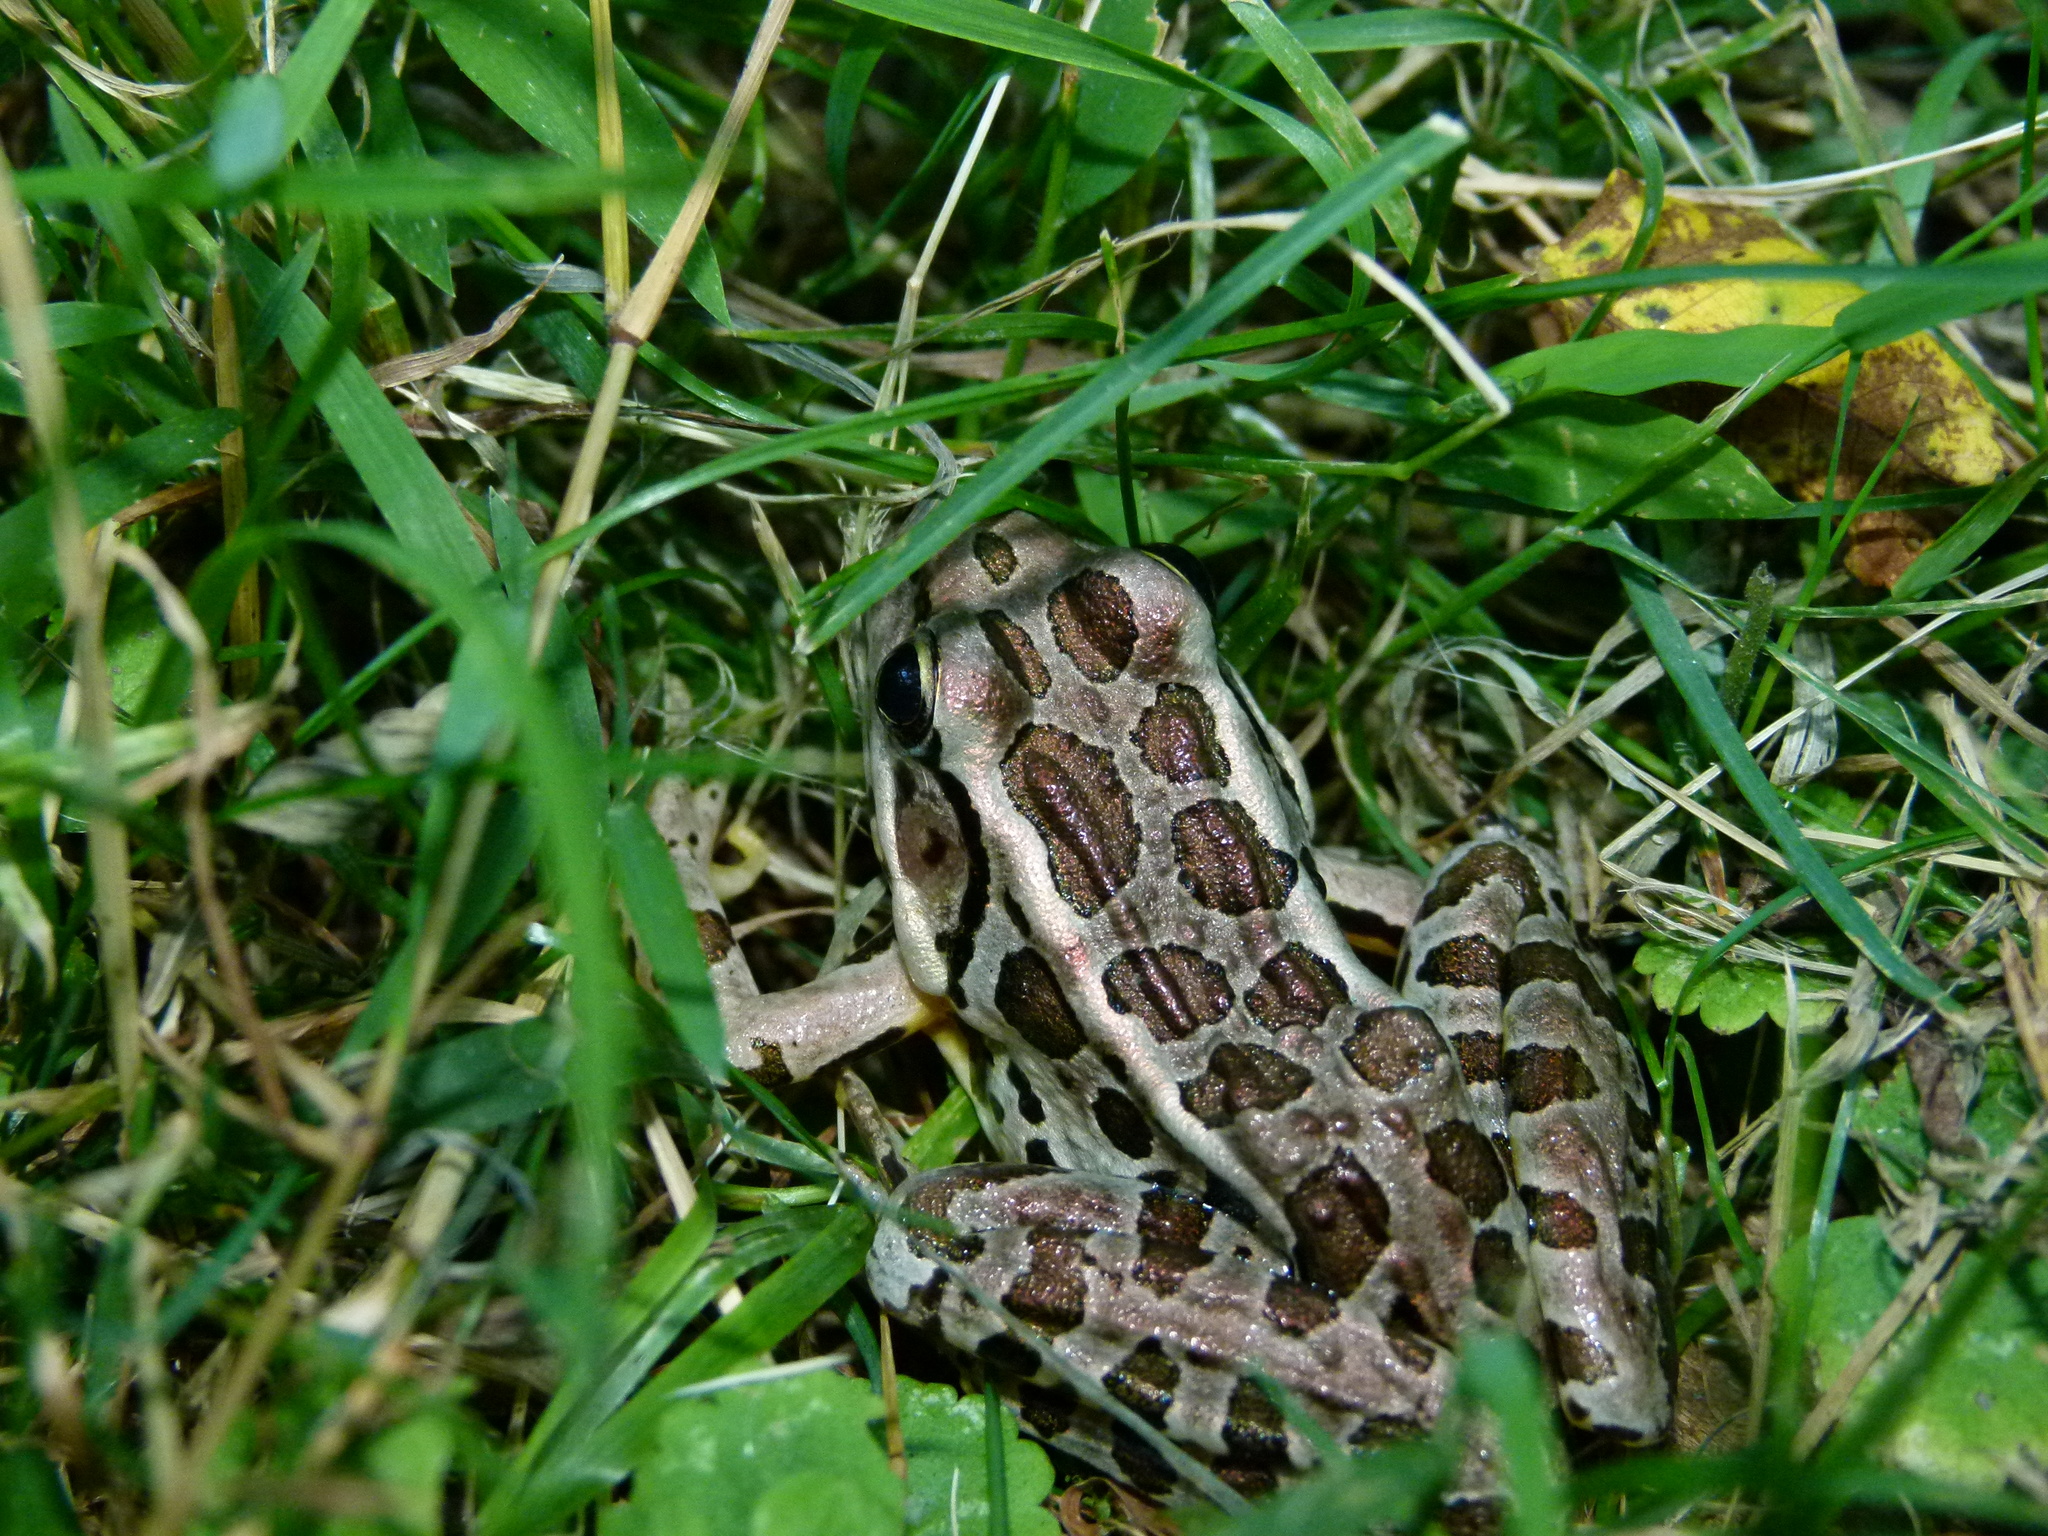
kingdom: Animalia
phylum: Chordata
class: Amphibia
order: Anura
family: Ranidae
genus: Lithobates
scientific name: Lithobates palustris
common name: Pickerel frog
